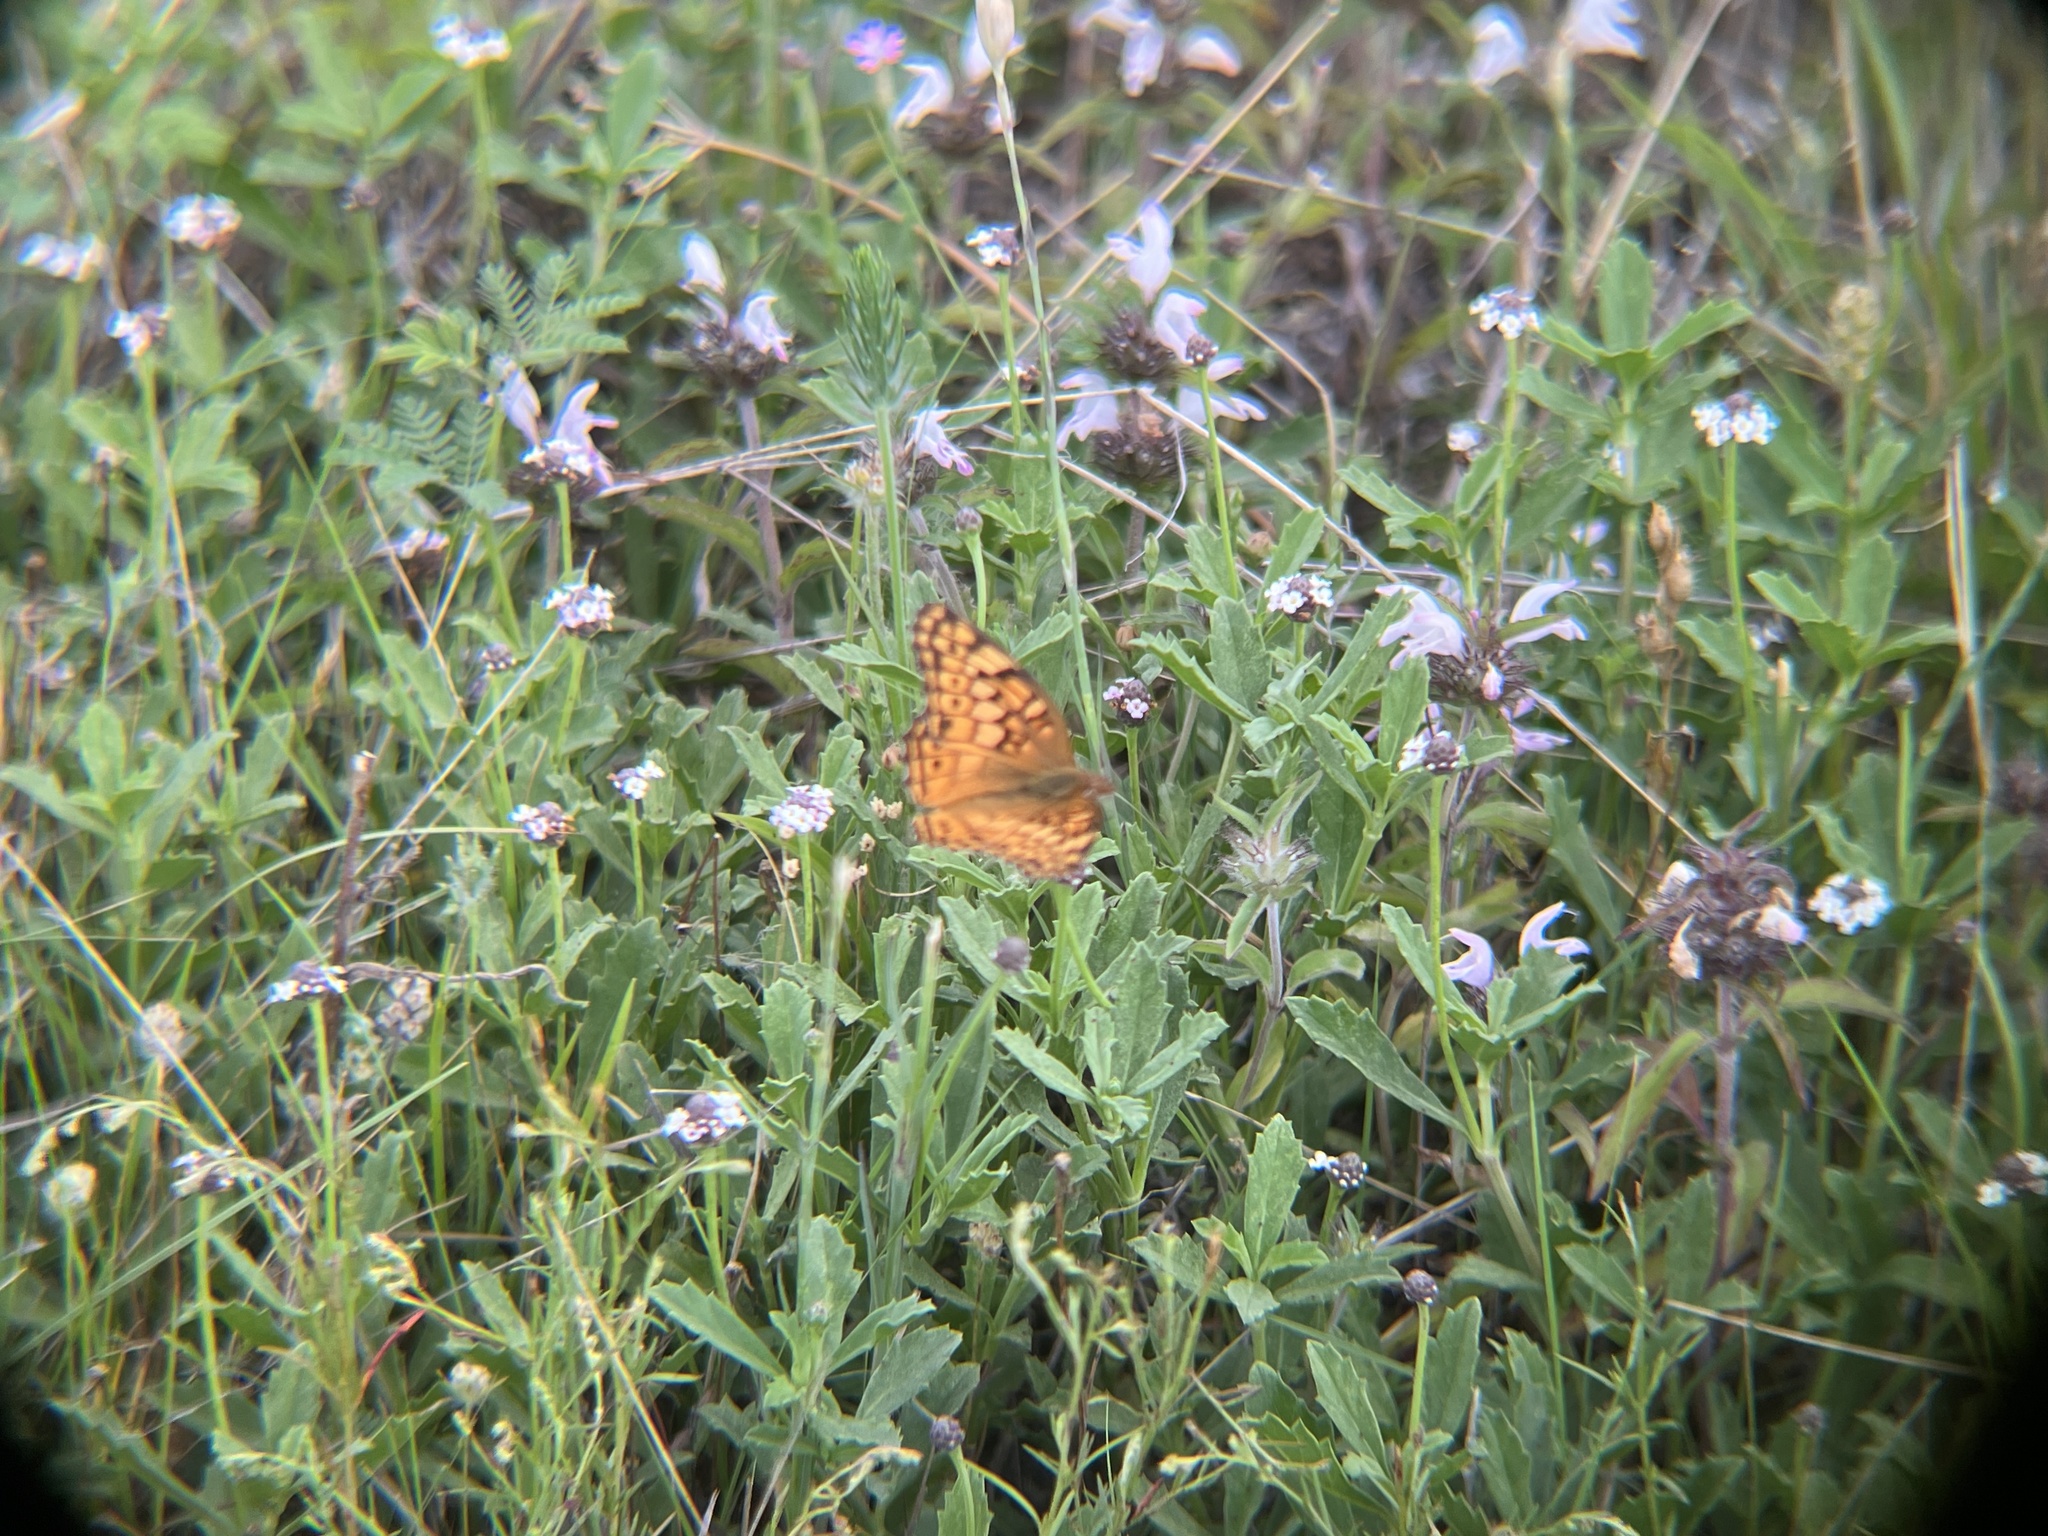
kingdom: Animalia
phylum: Arthropoda
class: Insecta
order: Lepidoptera
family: Nymphalidae
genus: Euptoieta
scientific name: Euptoieta claudia
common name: Variegated fritillary
